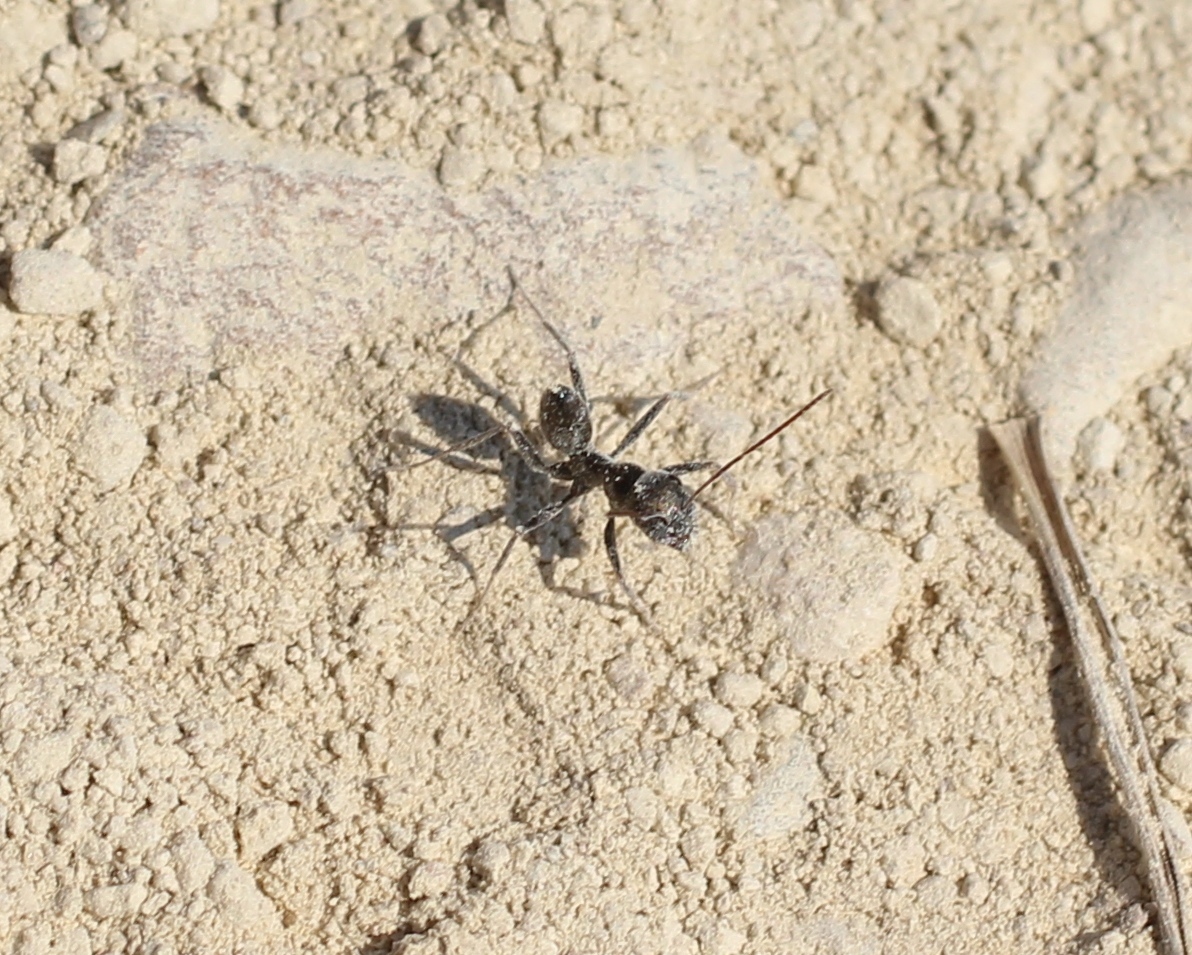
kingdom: Animalia
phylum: Arthropoda
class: Insecta
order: Hymenoptera
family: Formicidae
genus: Cataglyphis
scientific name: Cataglyphis aenescens
